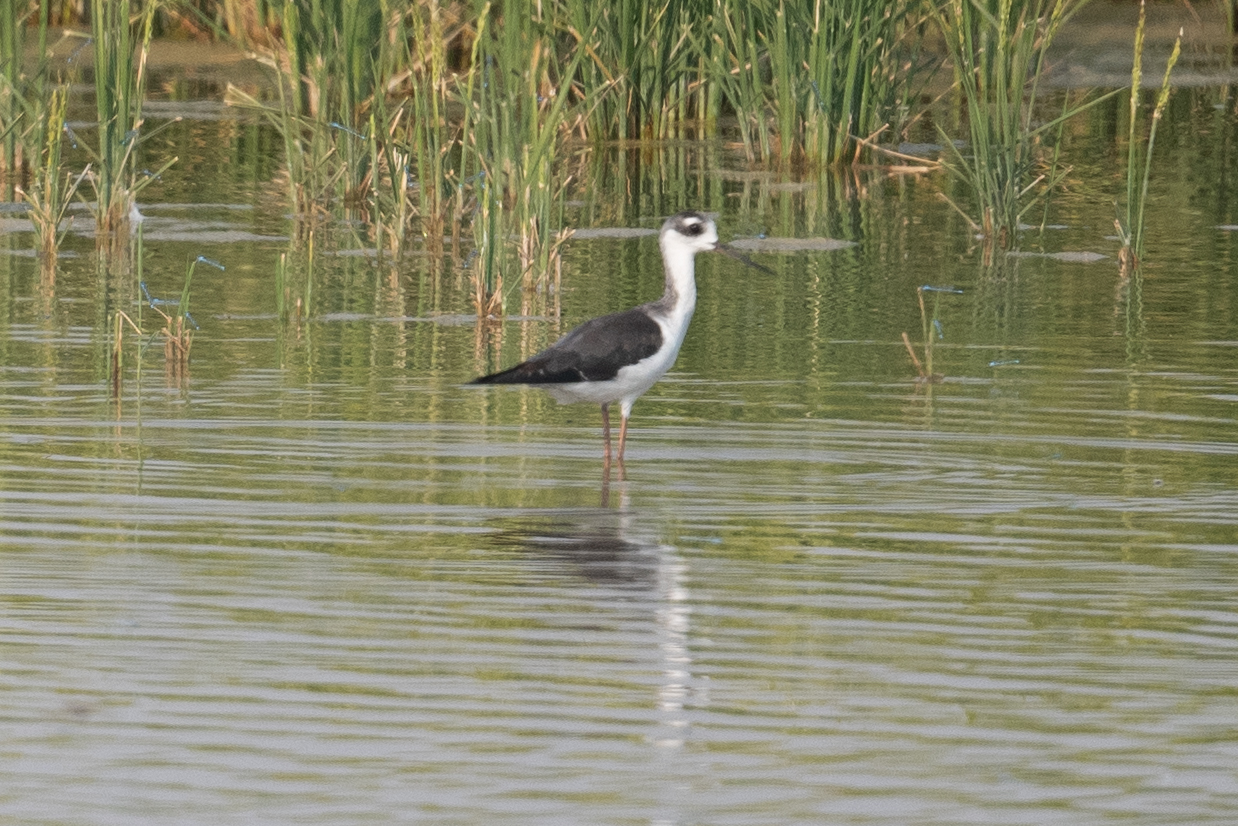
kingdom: Animalia
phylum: Chordata
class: Aves
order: Charadriiformes
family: Recurvirostridae
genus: Himantopus
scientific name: Himantopus mexicanus
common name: Black-necked stilt
